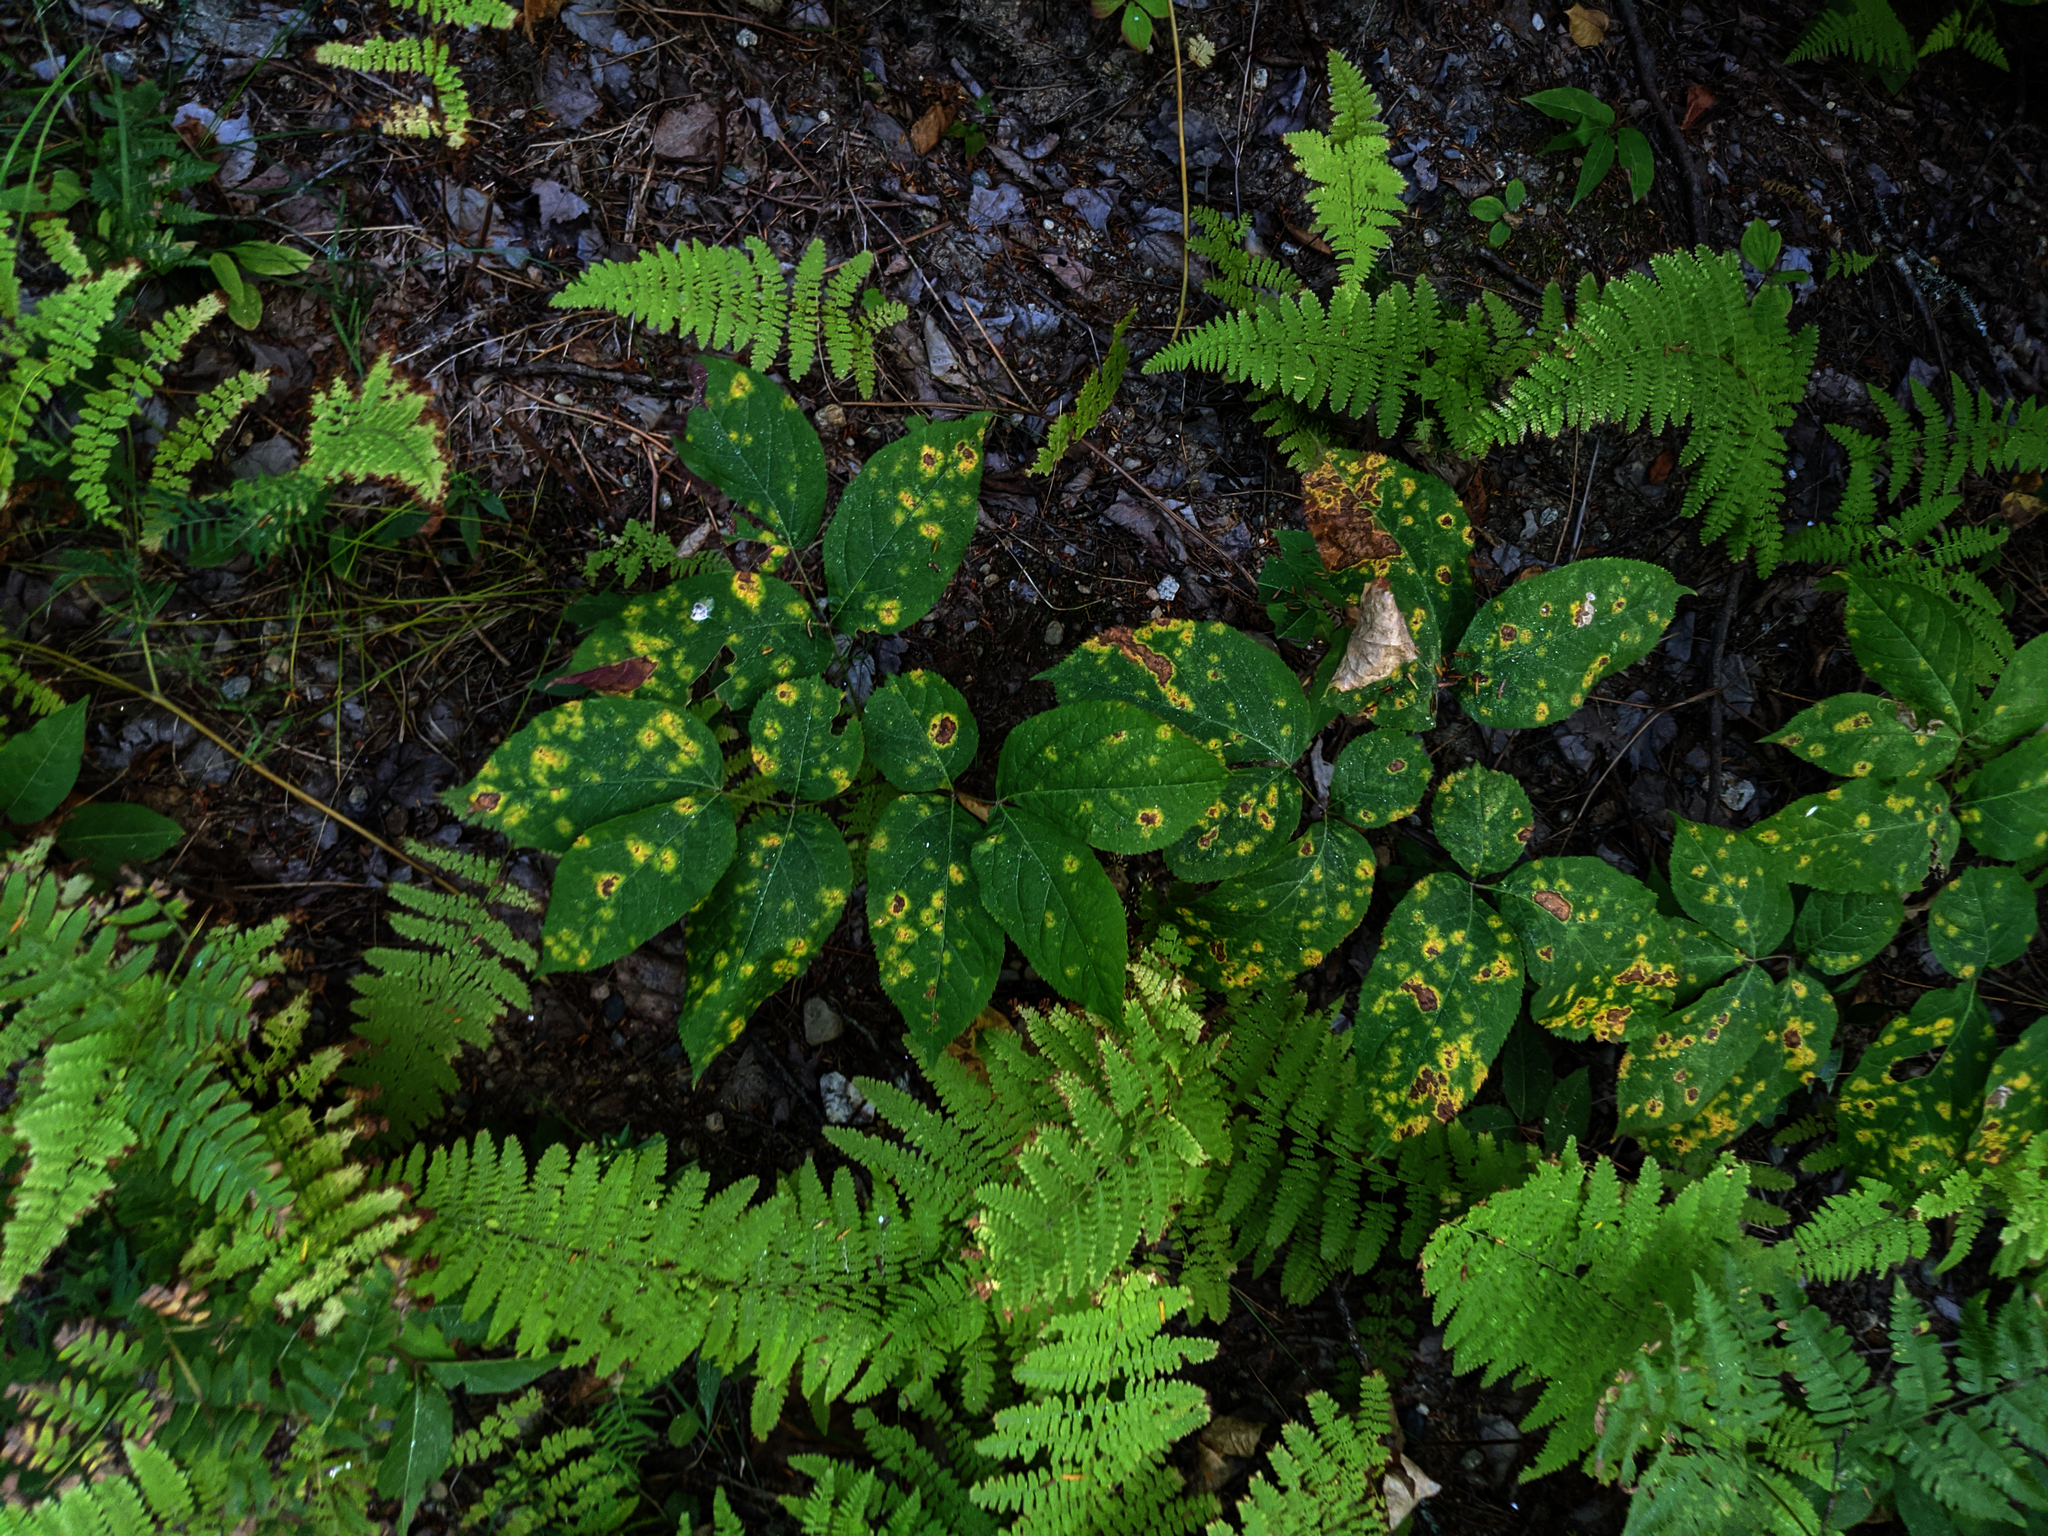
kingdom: Plantae
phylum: Tracheophyta
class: Magnoliopsida
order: Apiales
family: Araliaceae
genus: Aralia
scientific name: Aralia nudicaulis
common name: Wild sarsaparilla
